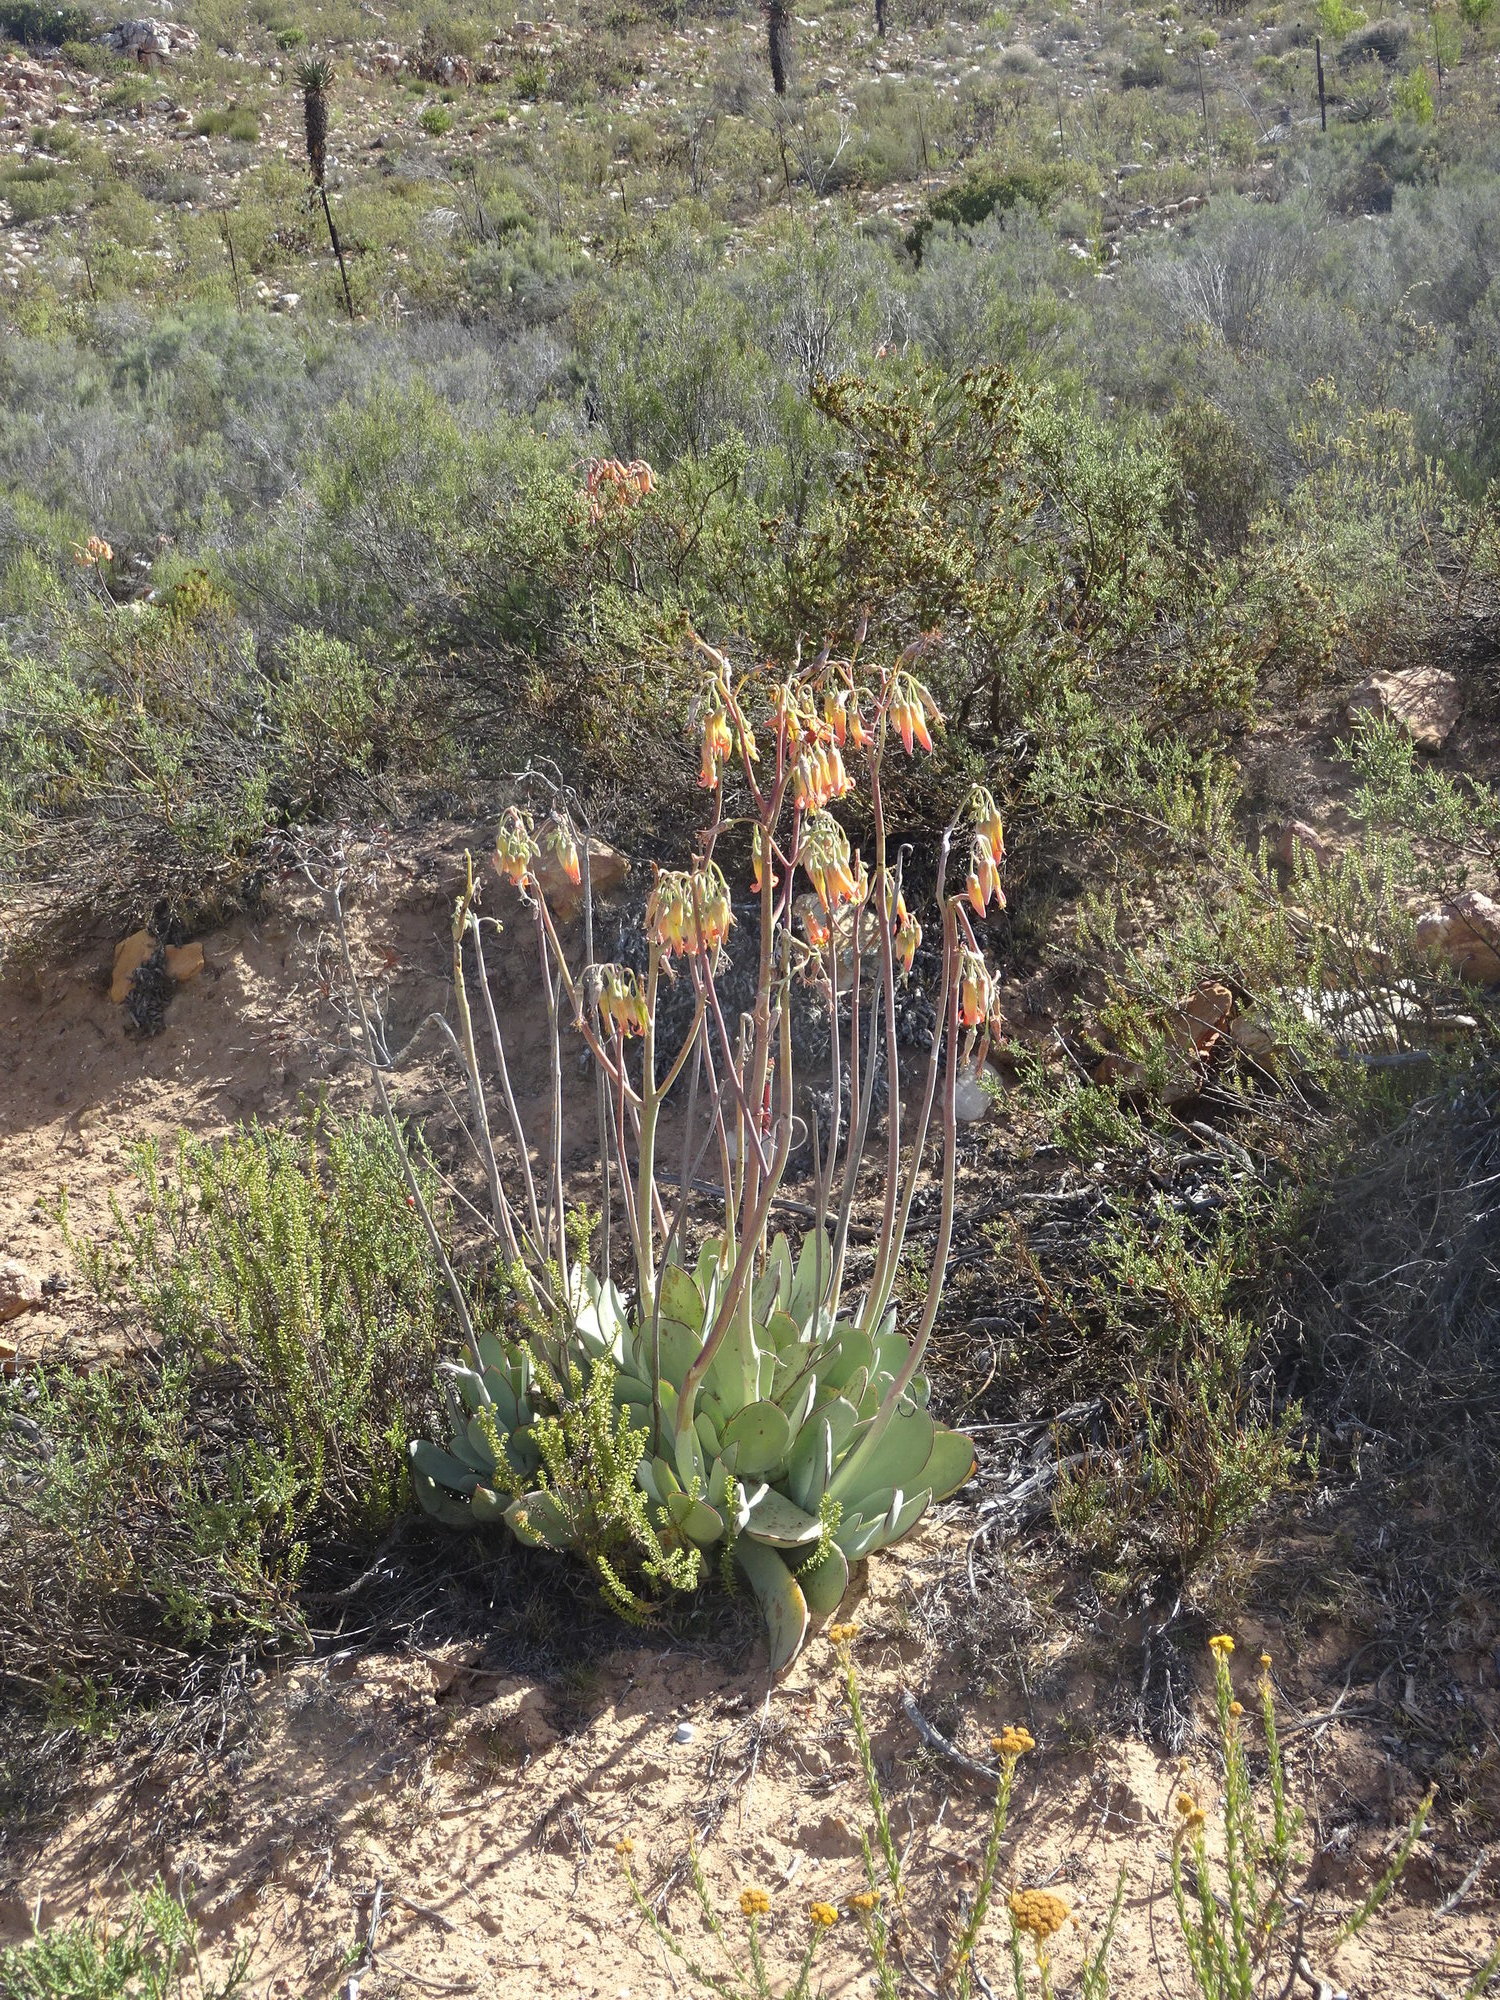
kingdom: Plantae
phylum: Tracheophyta
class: Magnoliopsida
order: Saxifragales
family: Crassulaceae
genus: Cotyledon
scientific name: Cotyledon orbiculata
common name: Pig's ear
